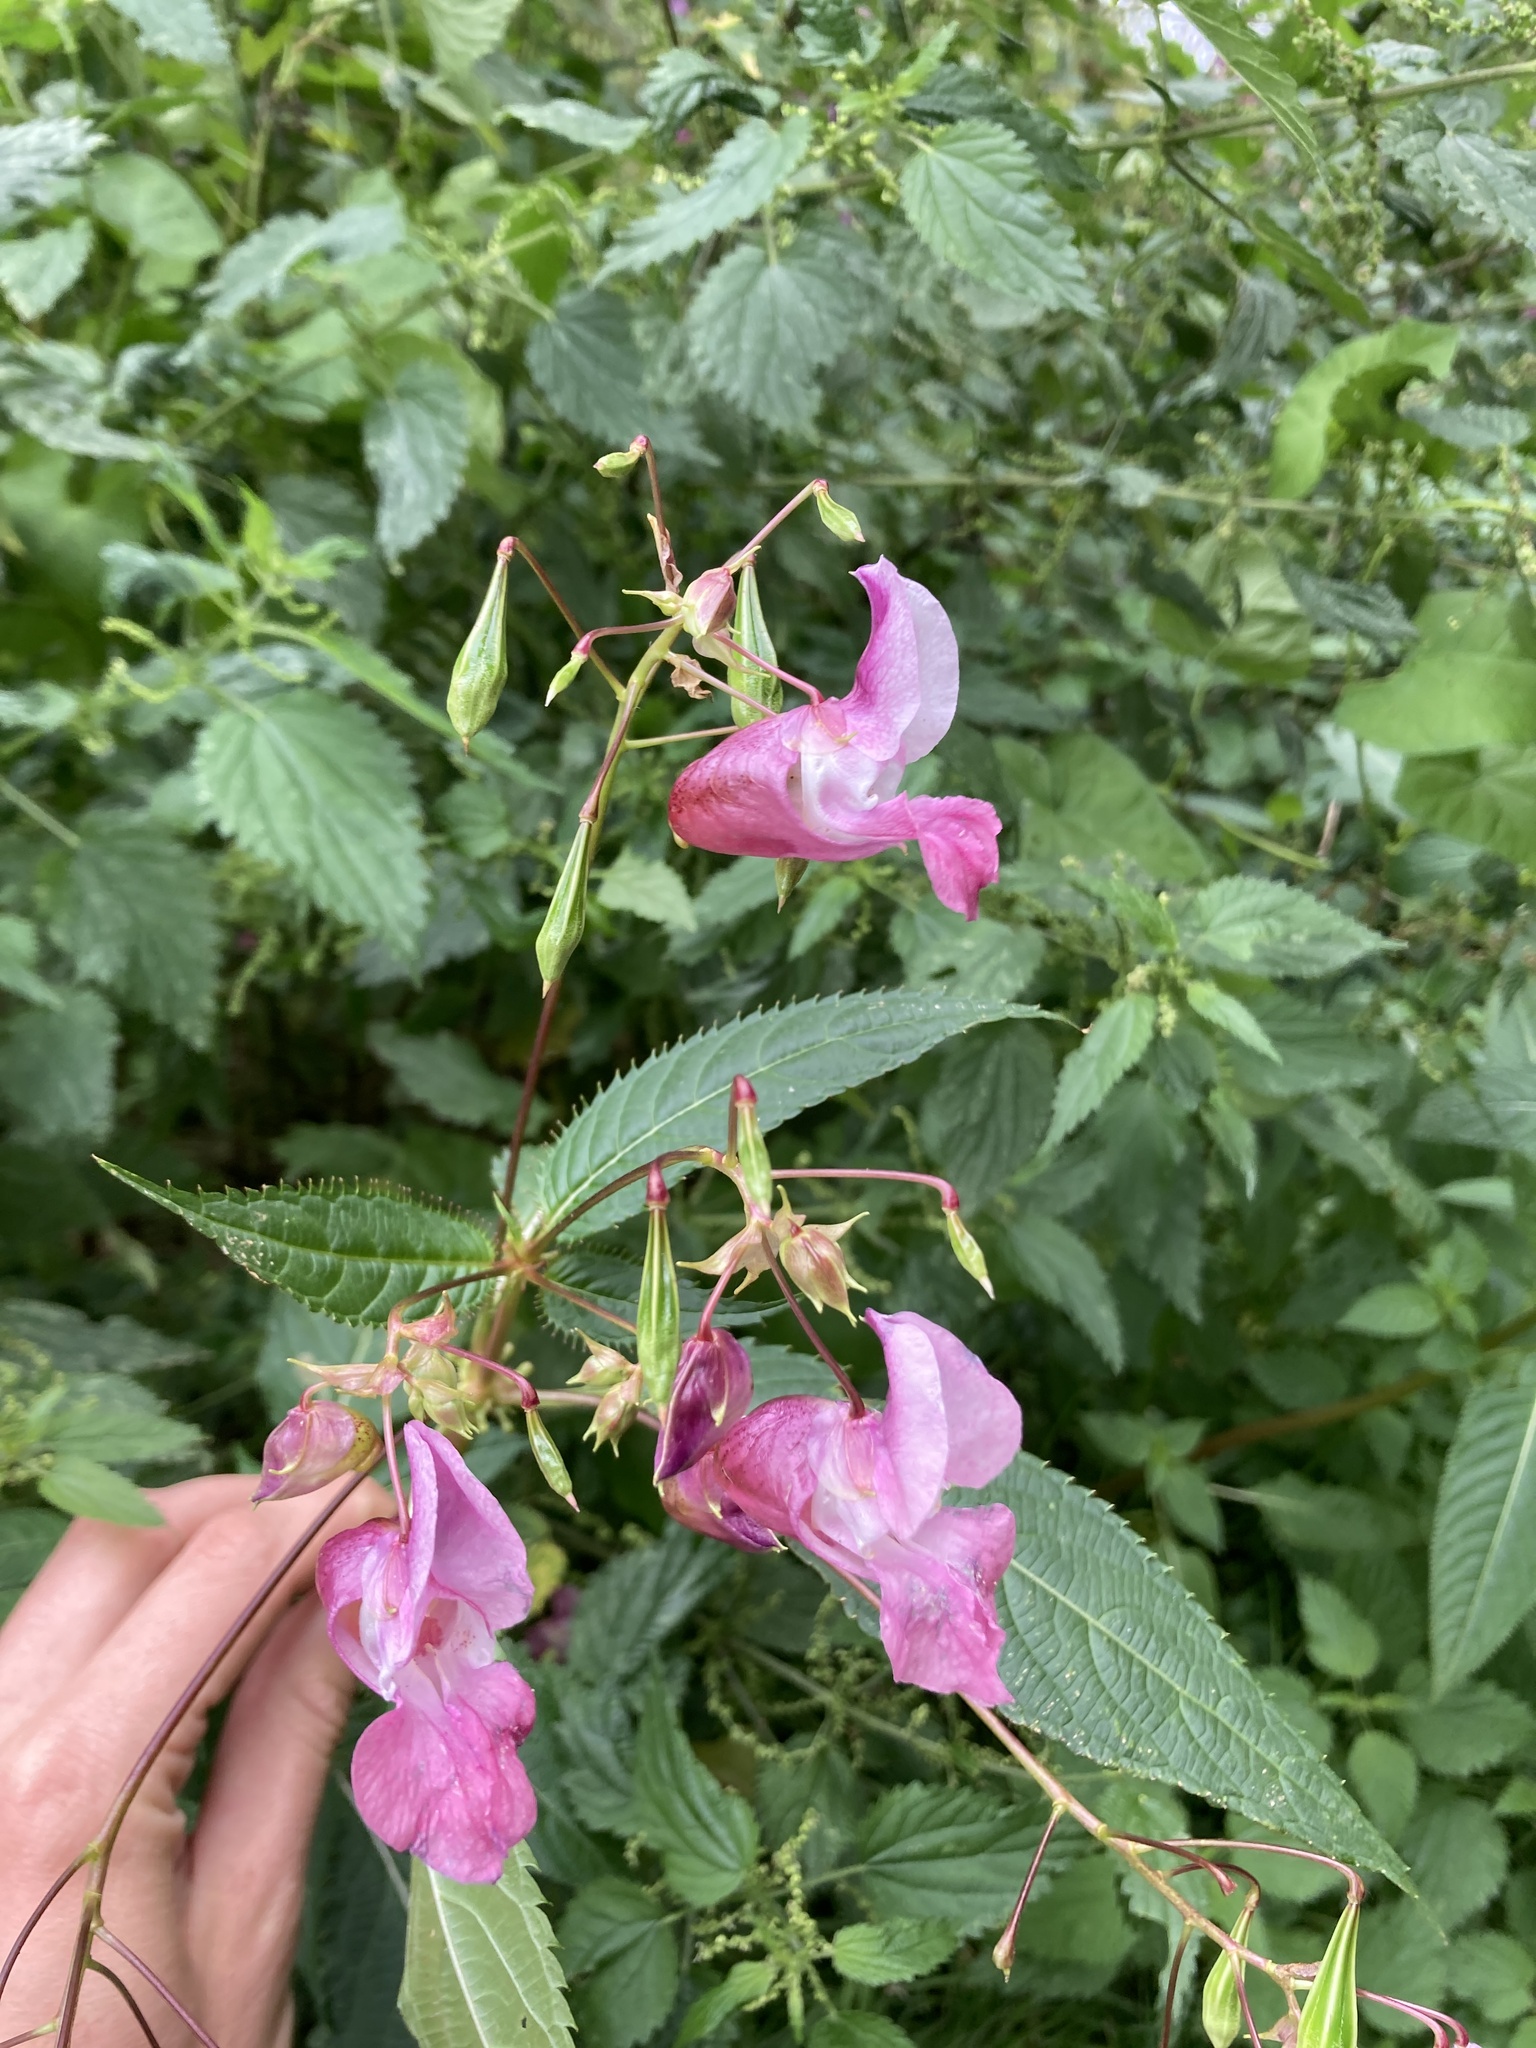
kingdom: Plantae
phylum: Tracheophyta
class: Magnoliopsida
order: Ericales
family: Balsaminaceae
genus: Impatiens
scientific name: Impatiens glandulifera
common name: Himalayan balsam
